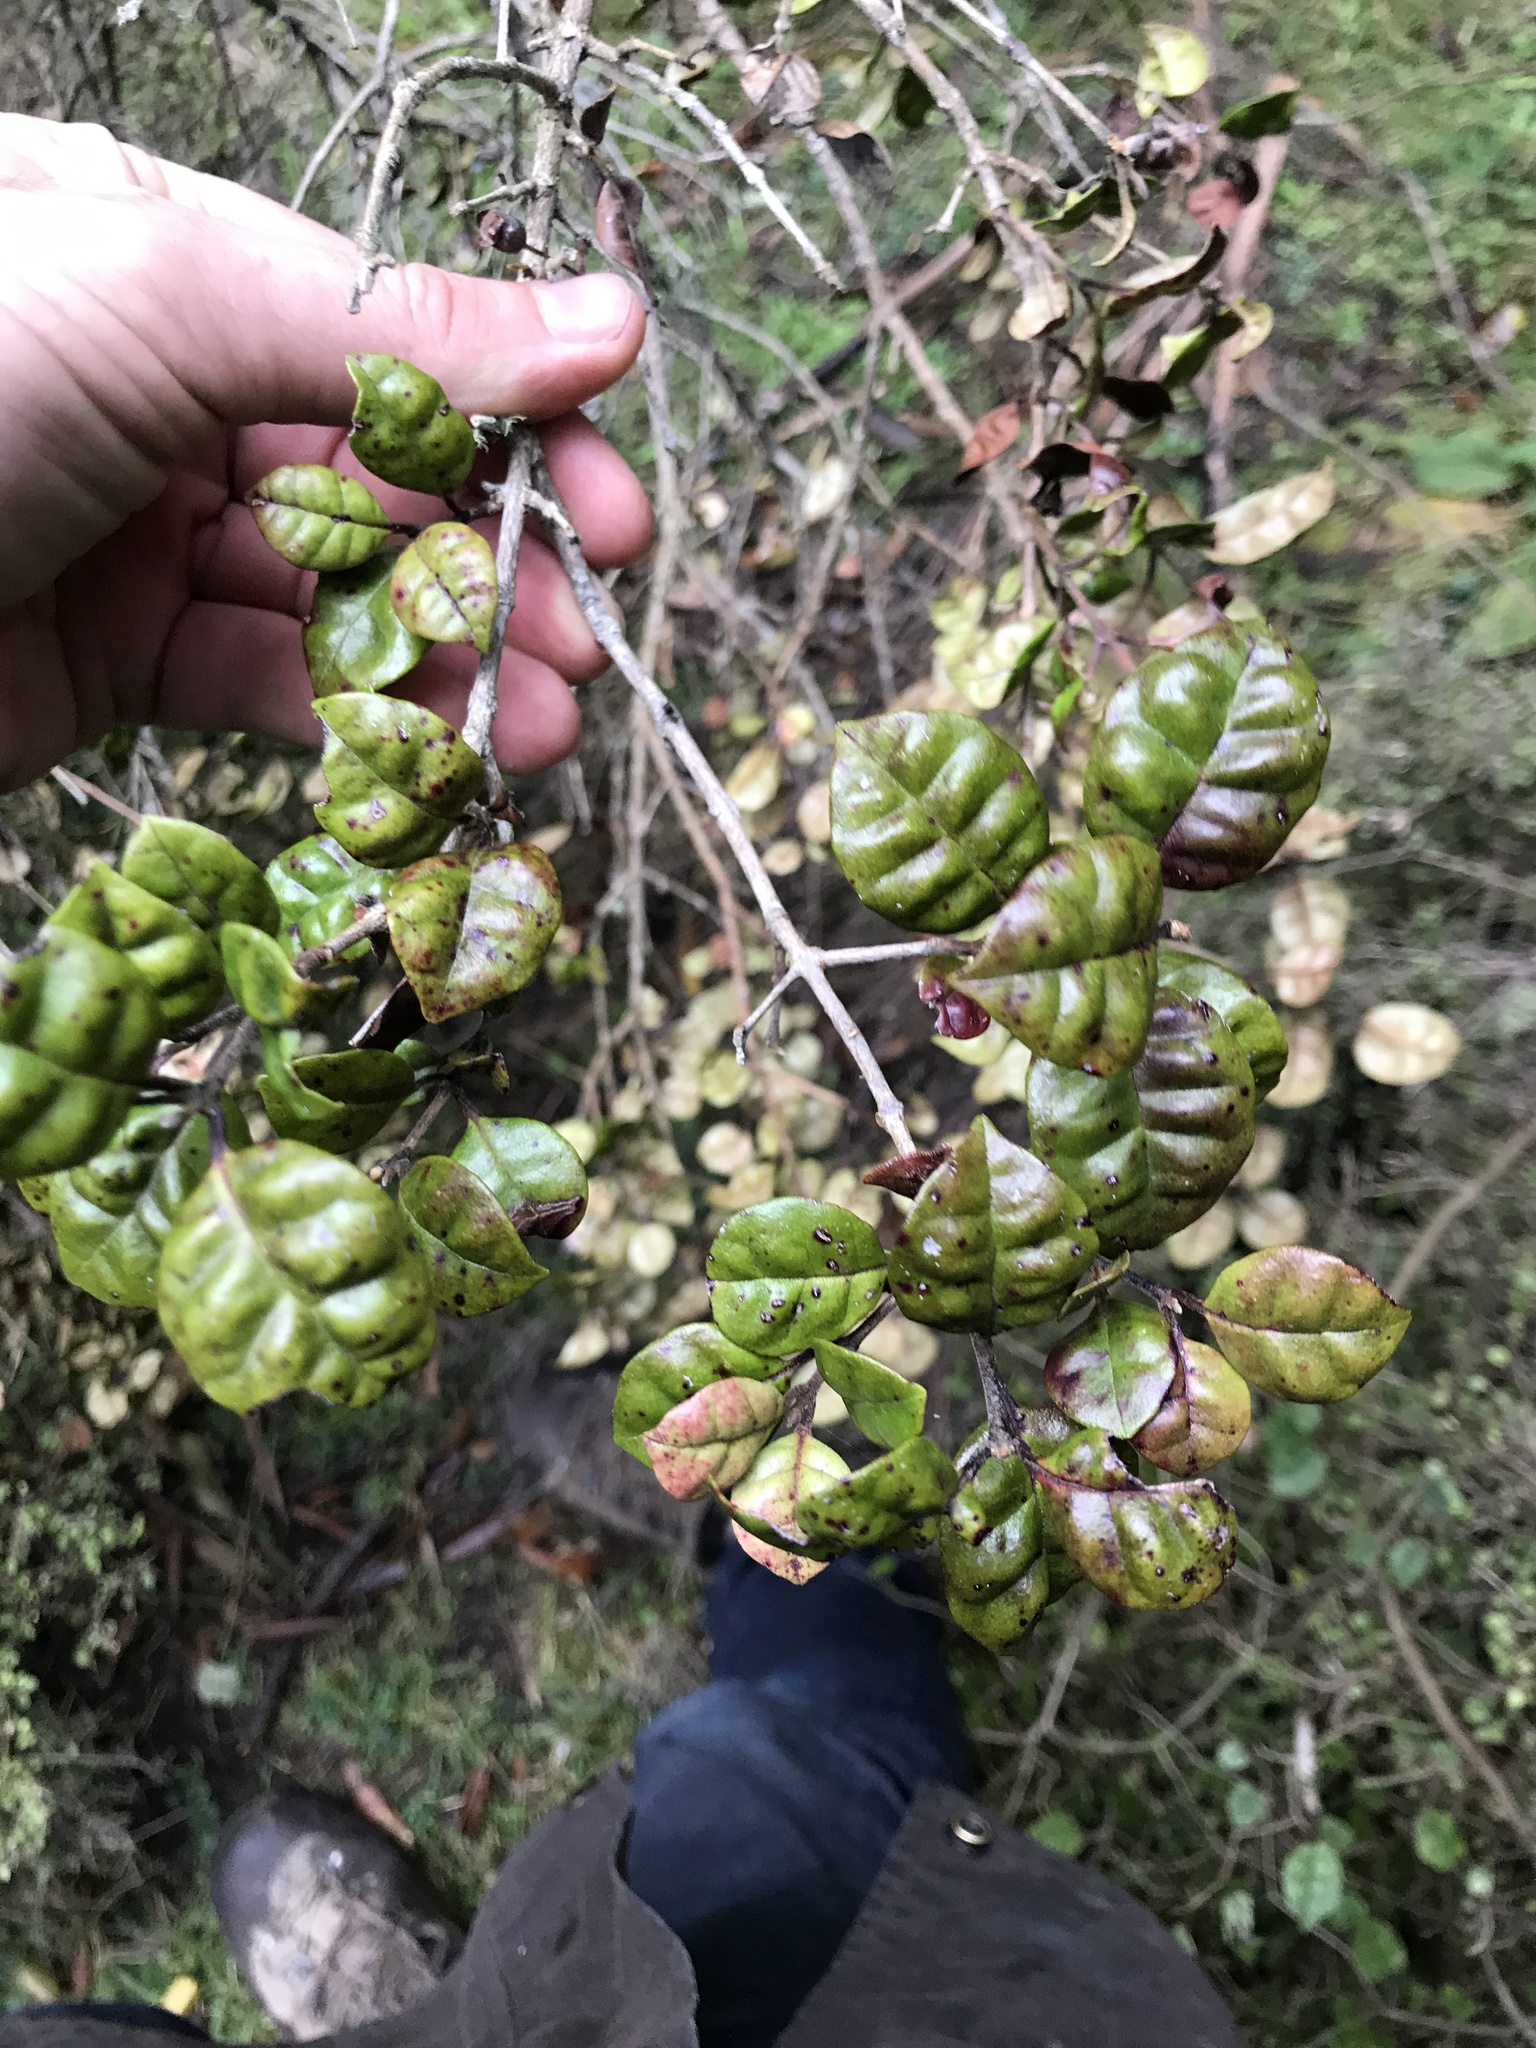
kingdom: Plantae
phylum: Tracheophyta
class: Magnoliopsida
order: Myrtales
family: Myrtaceae
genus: Lophomyrtus
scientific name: Lophomyrtus bullata
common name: Rama rama
